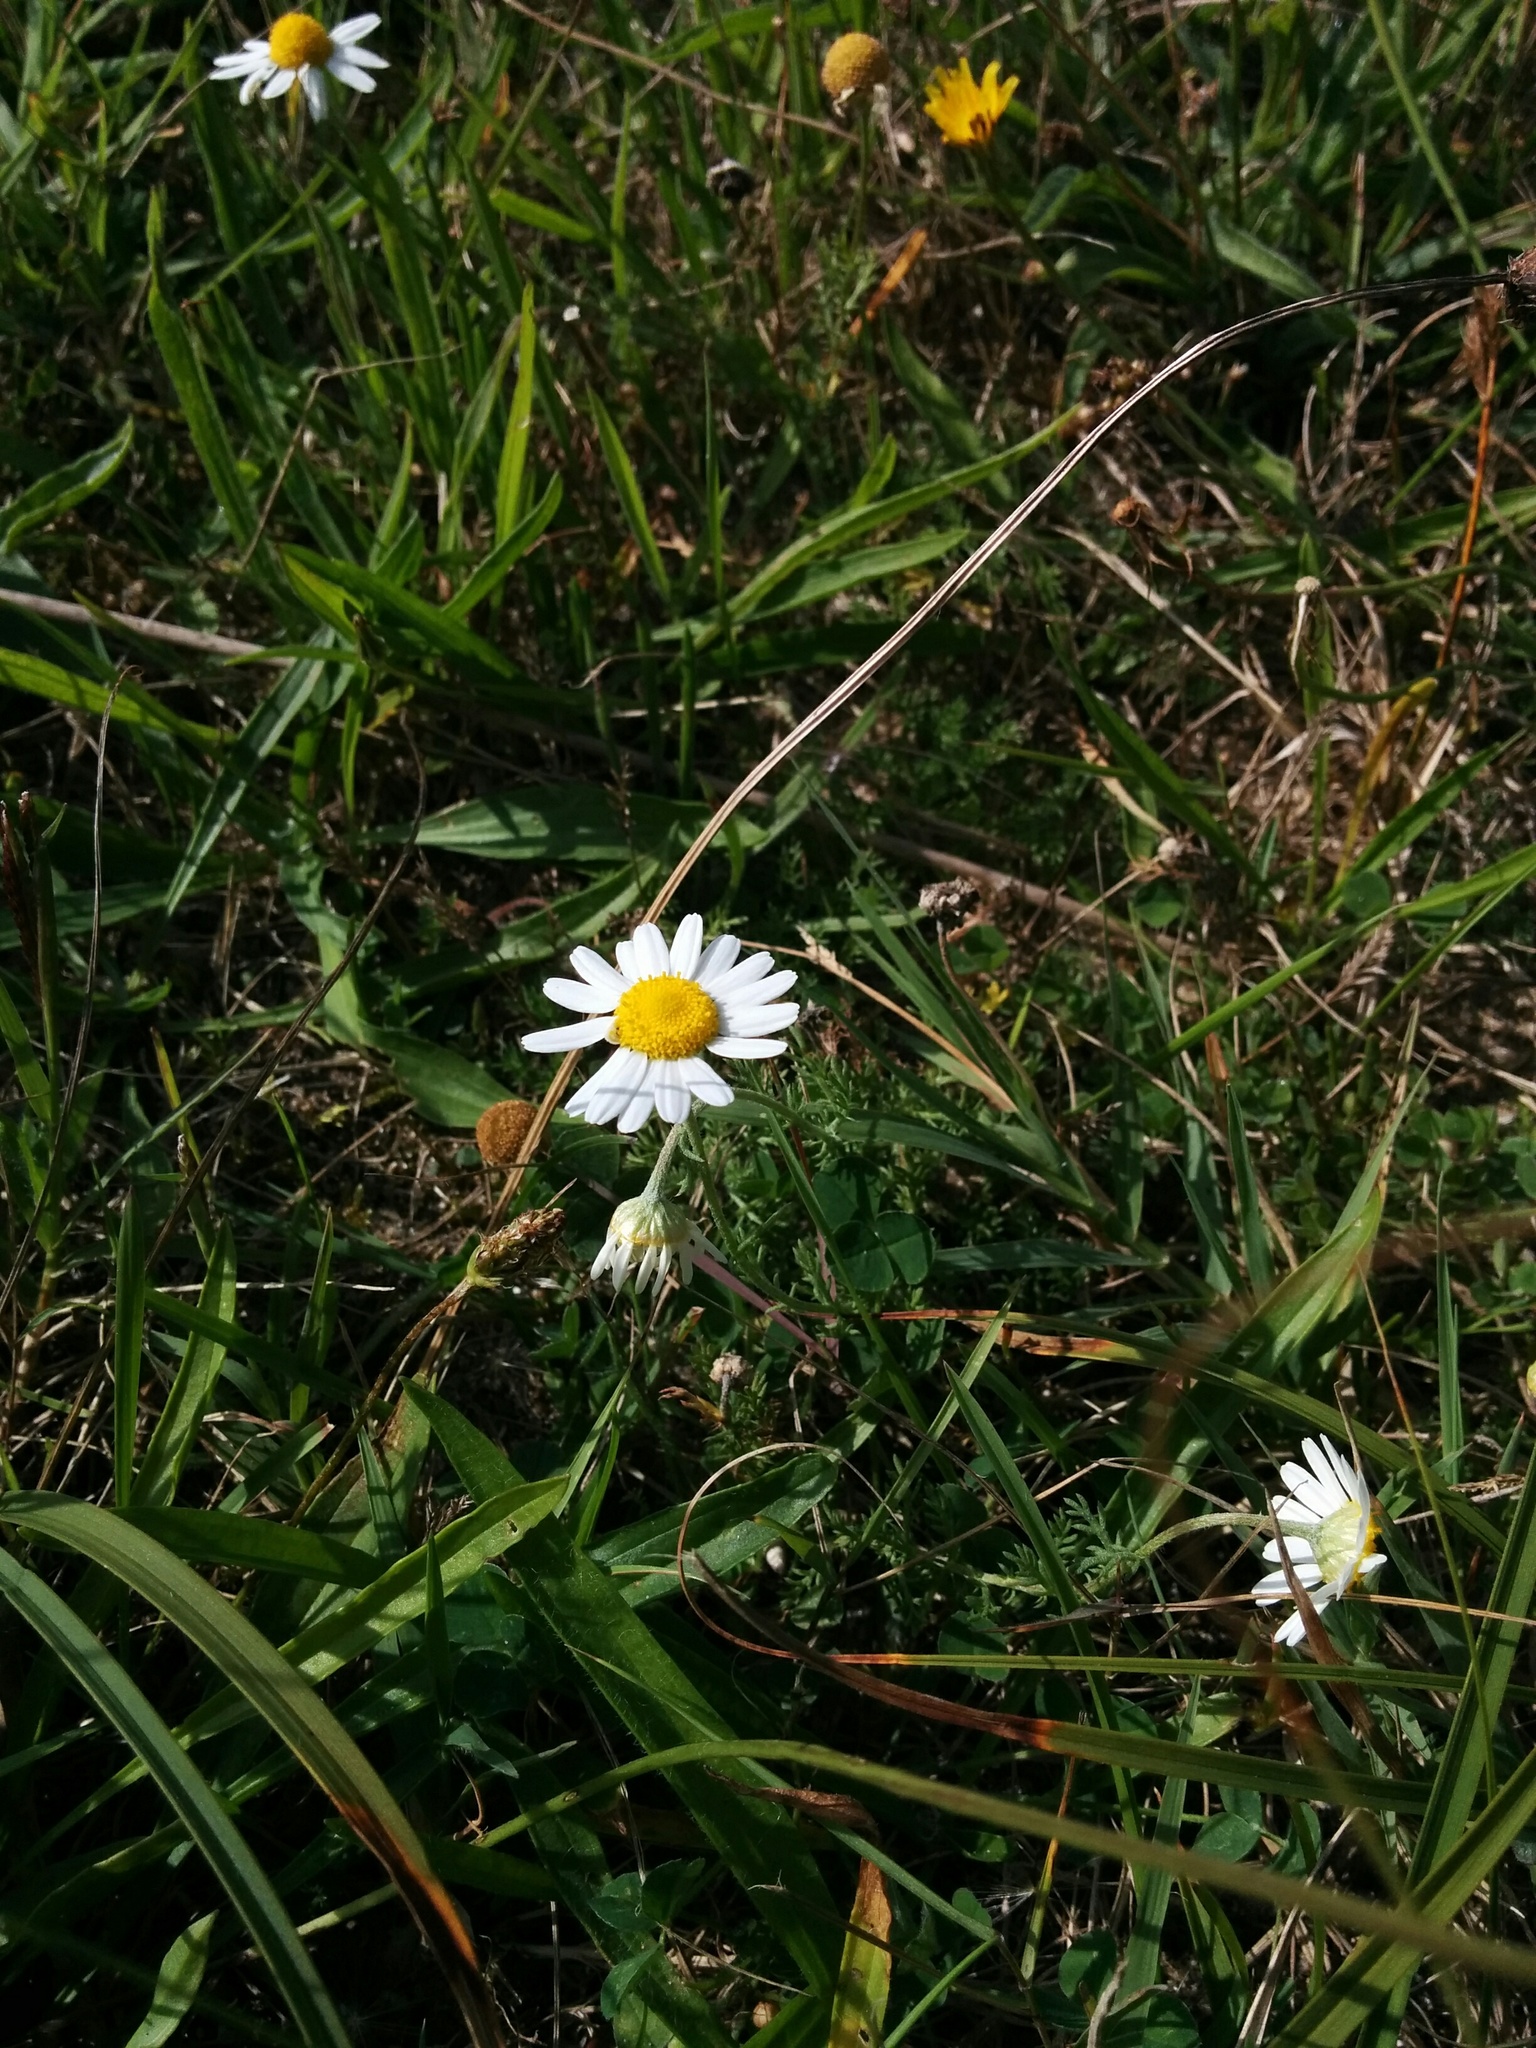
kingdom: Plantae
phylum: Tracheophyta
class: Magnoliopsida
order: Asterales
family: Asteraceae
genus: Chamaemelum
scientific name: Chamaemelum nobile
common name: Roman chamomile
